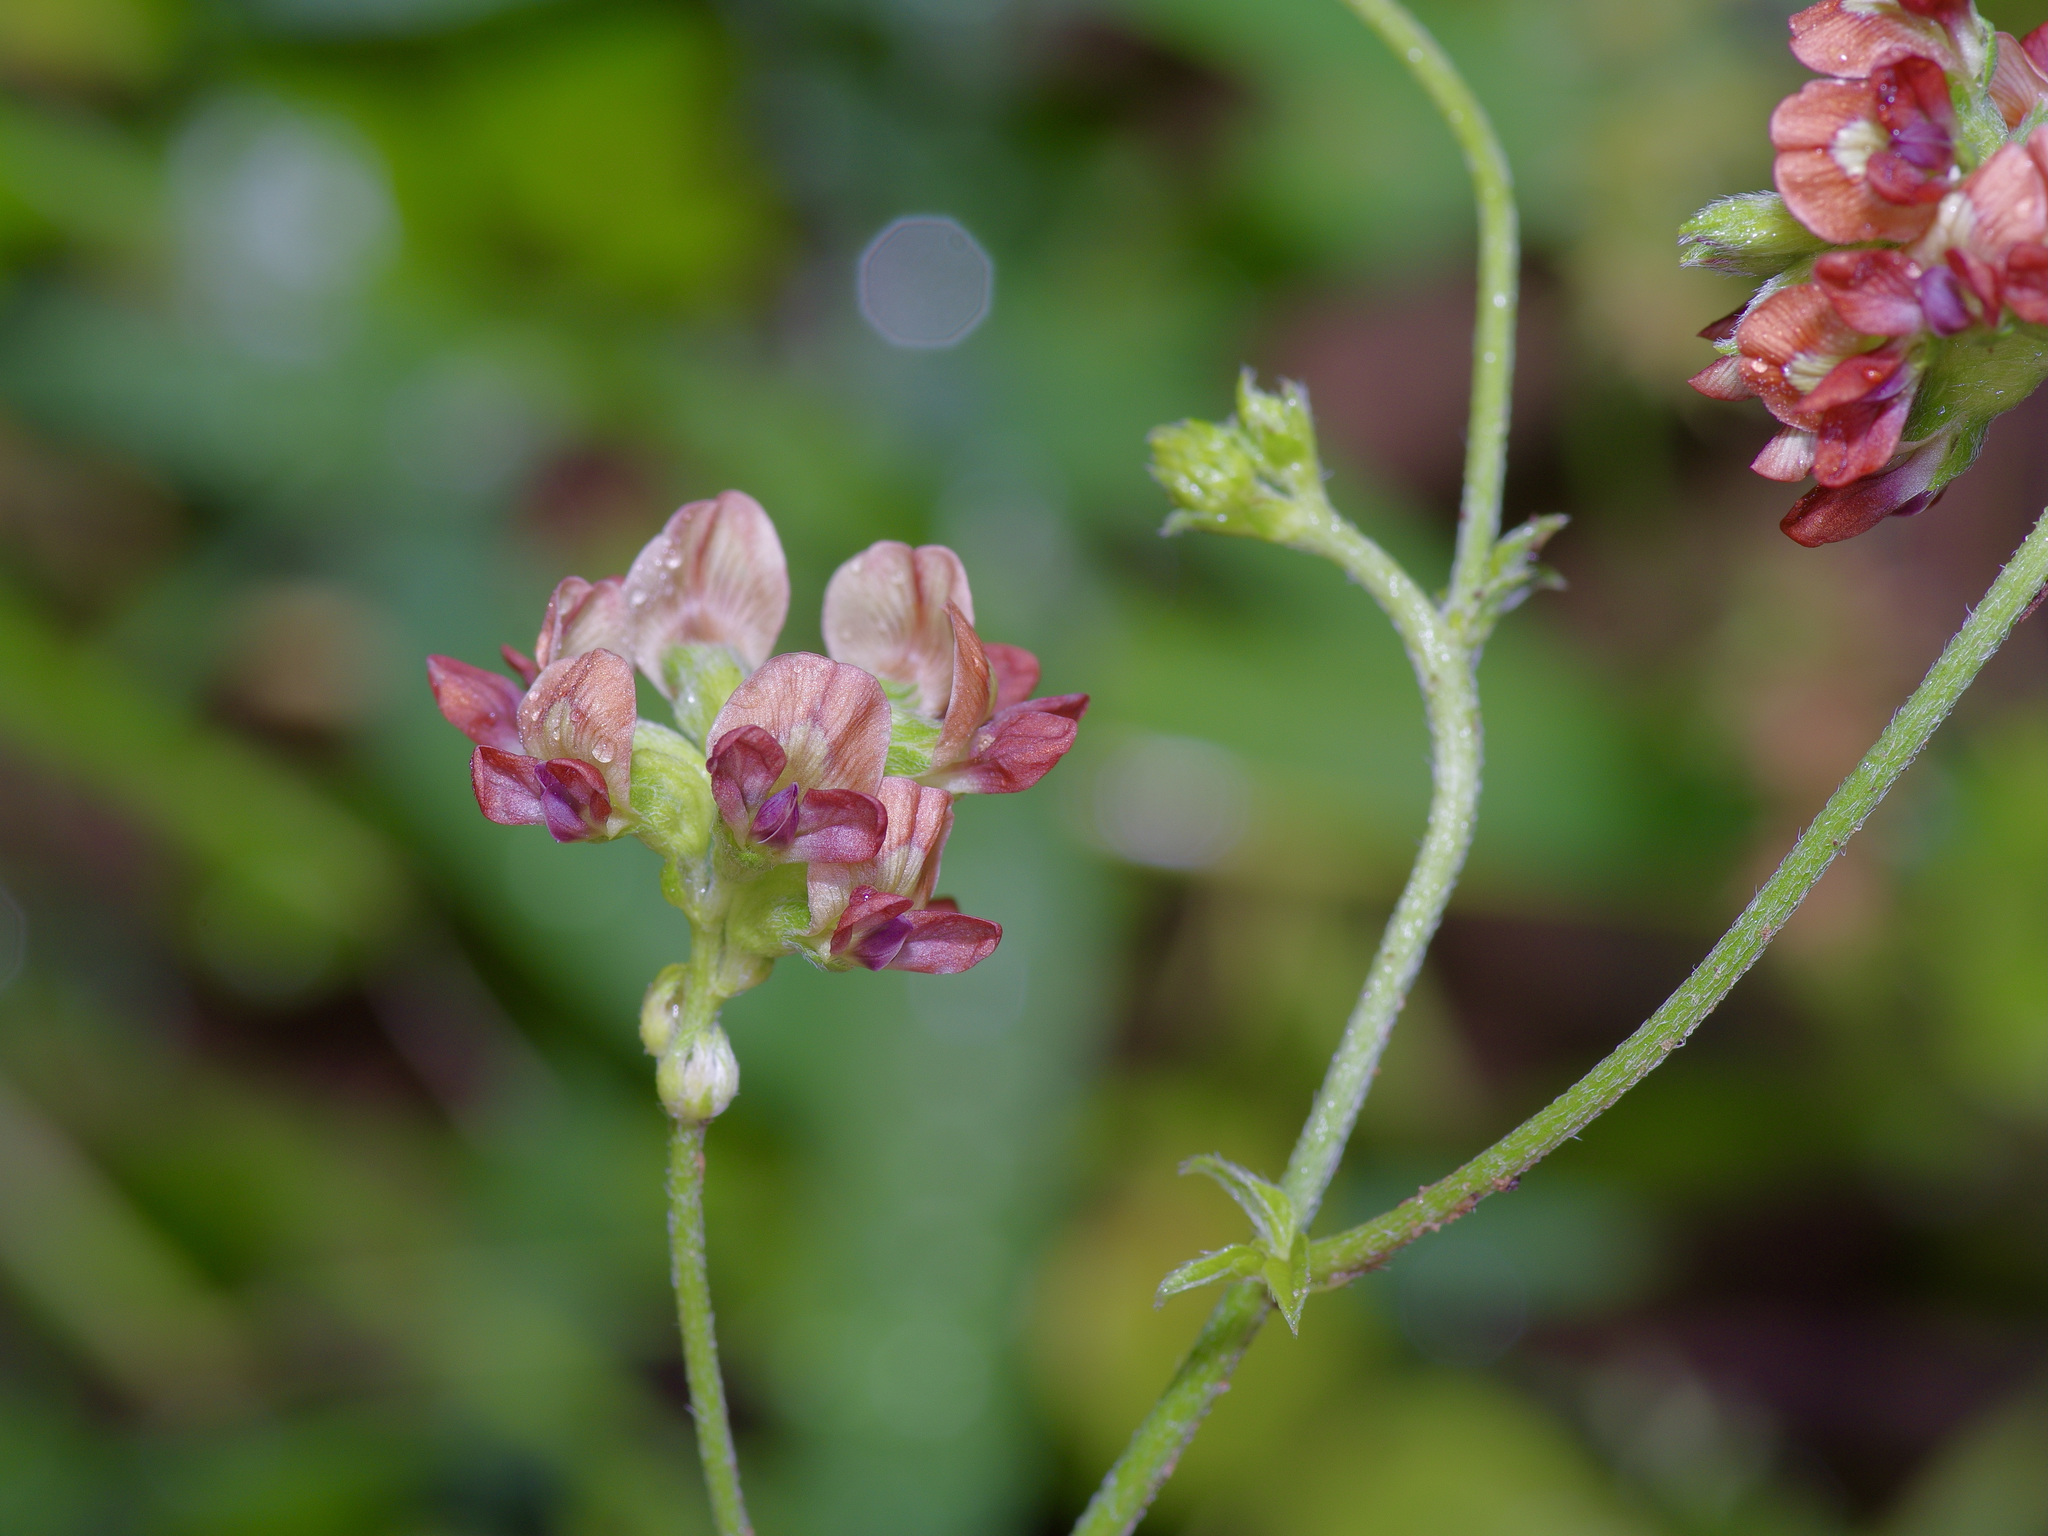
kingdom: Plantae
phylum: Tracheophyta
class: Magnoliopsida
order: Fabales
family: Fabaceae
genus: Pediomelum
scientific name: Pediomelum rhombifolium
